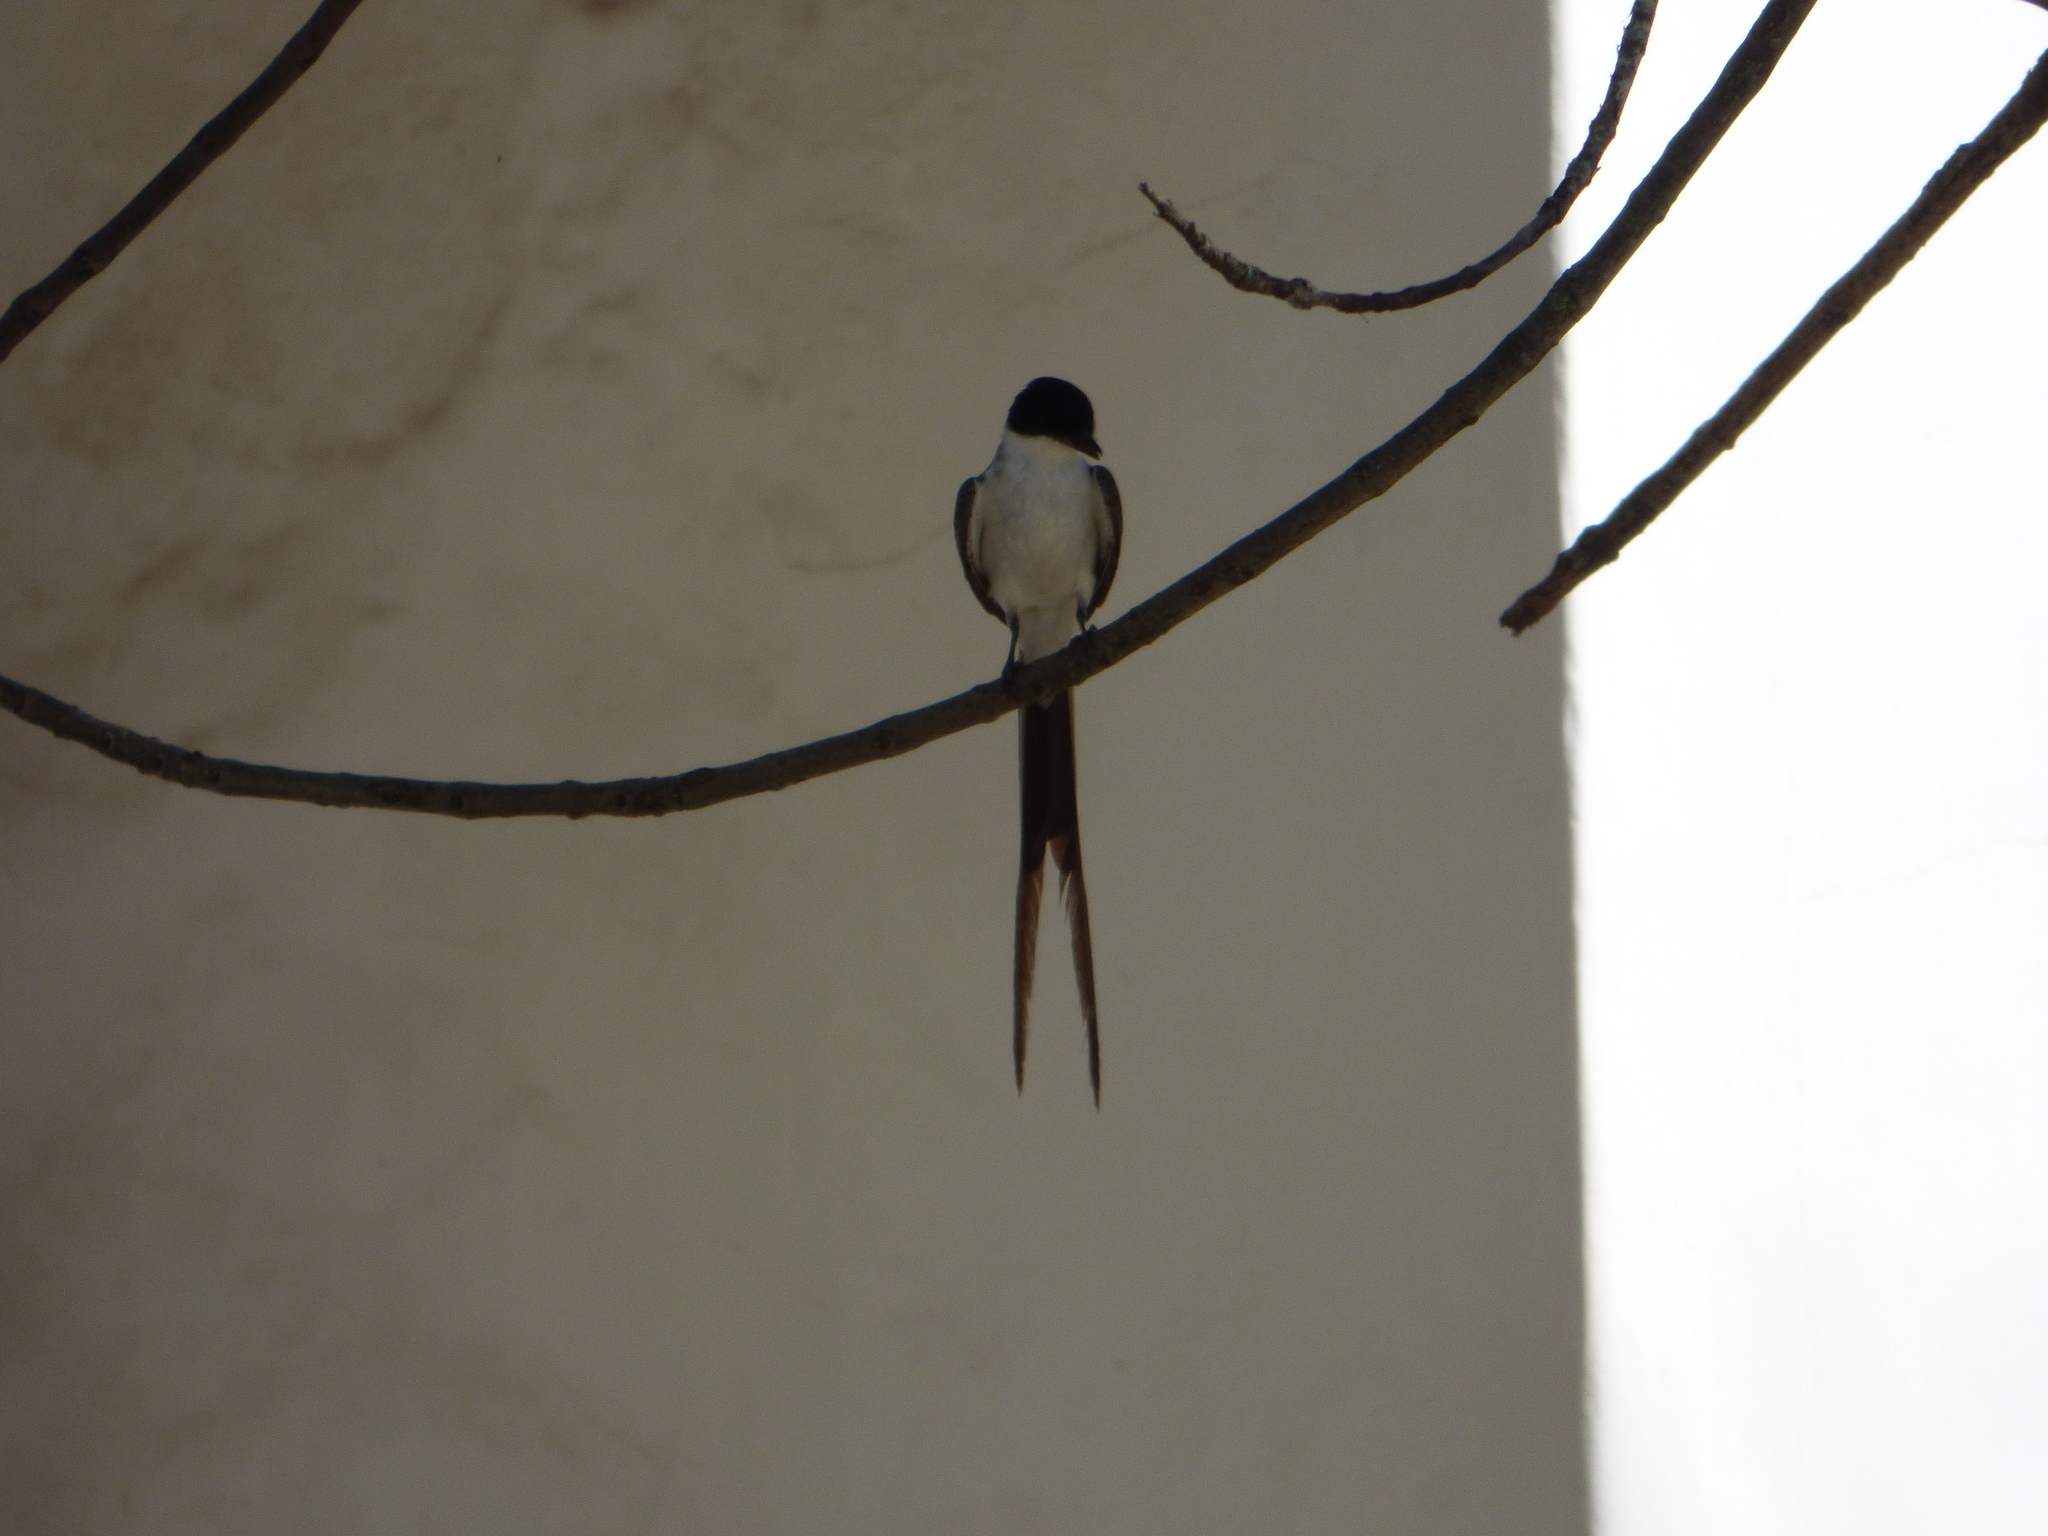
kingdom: Animalia
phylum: Chordata
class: Aves
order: Passeriformes
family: Tyrannidae
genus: Tyrannus
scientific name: Tyrannus savana
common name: Fork-tailed flycatcher
